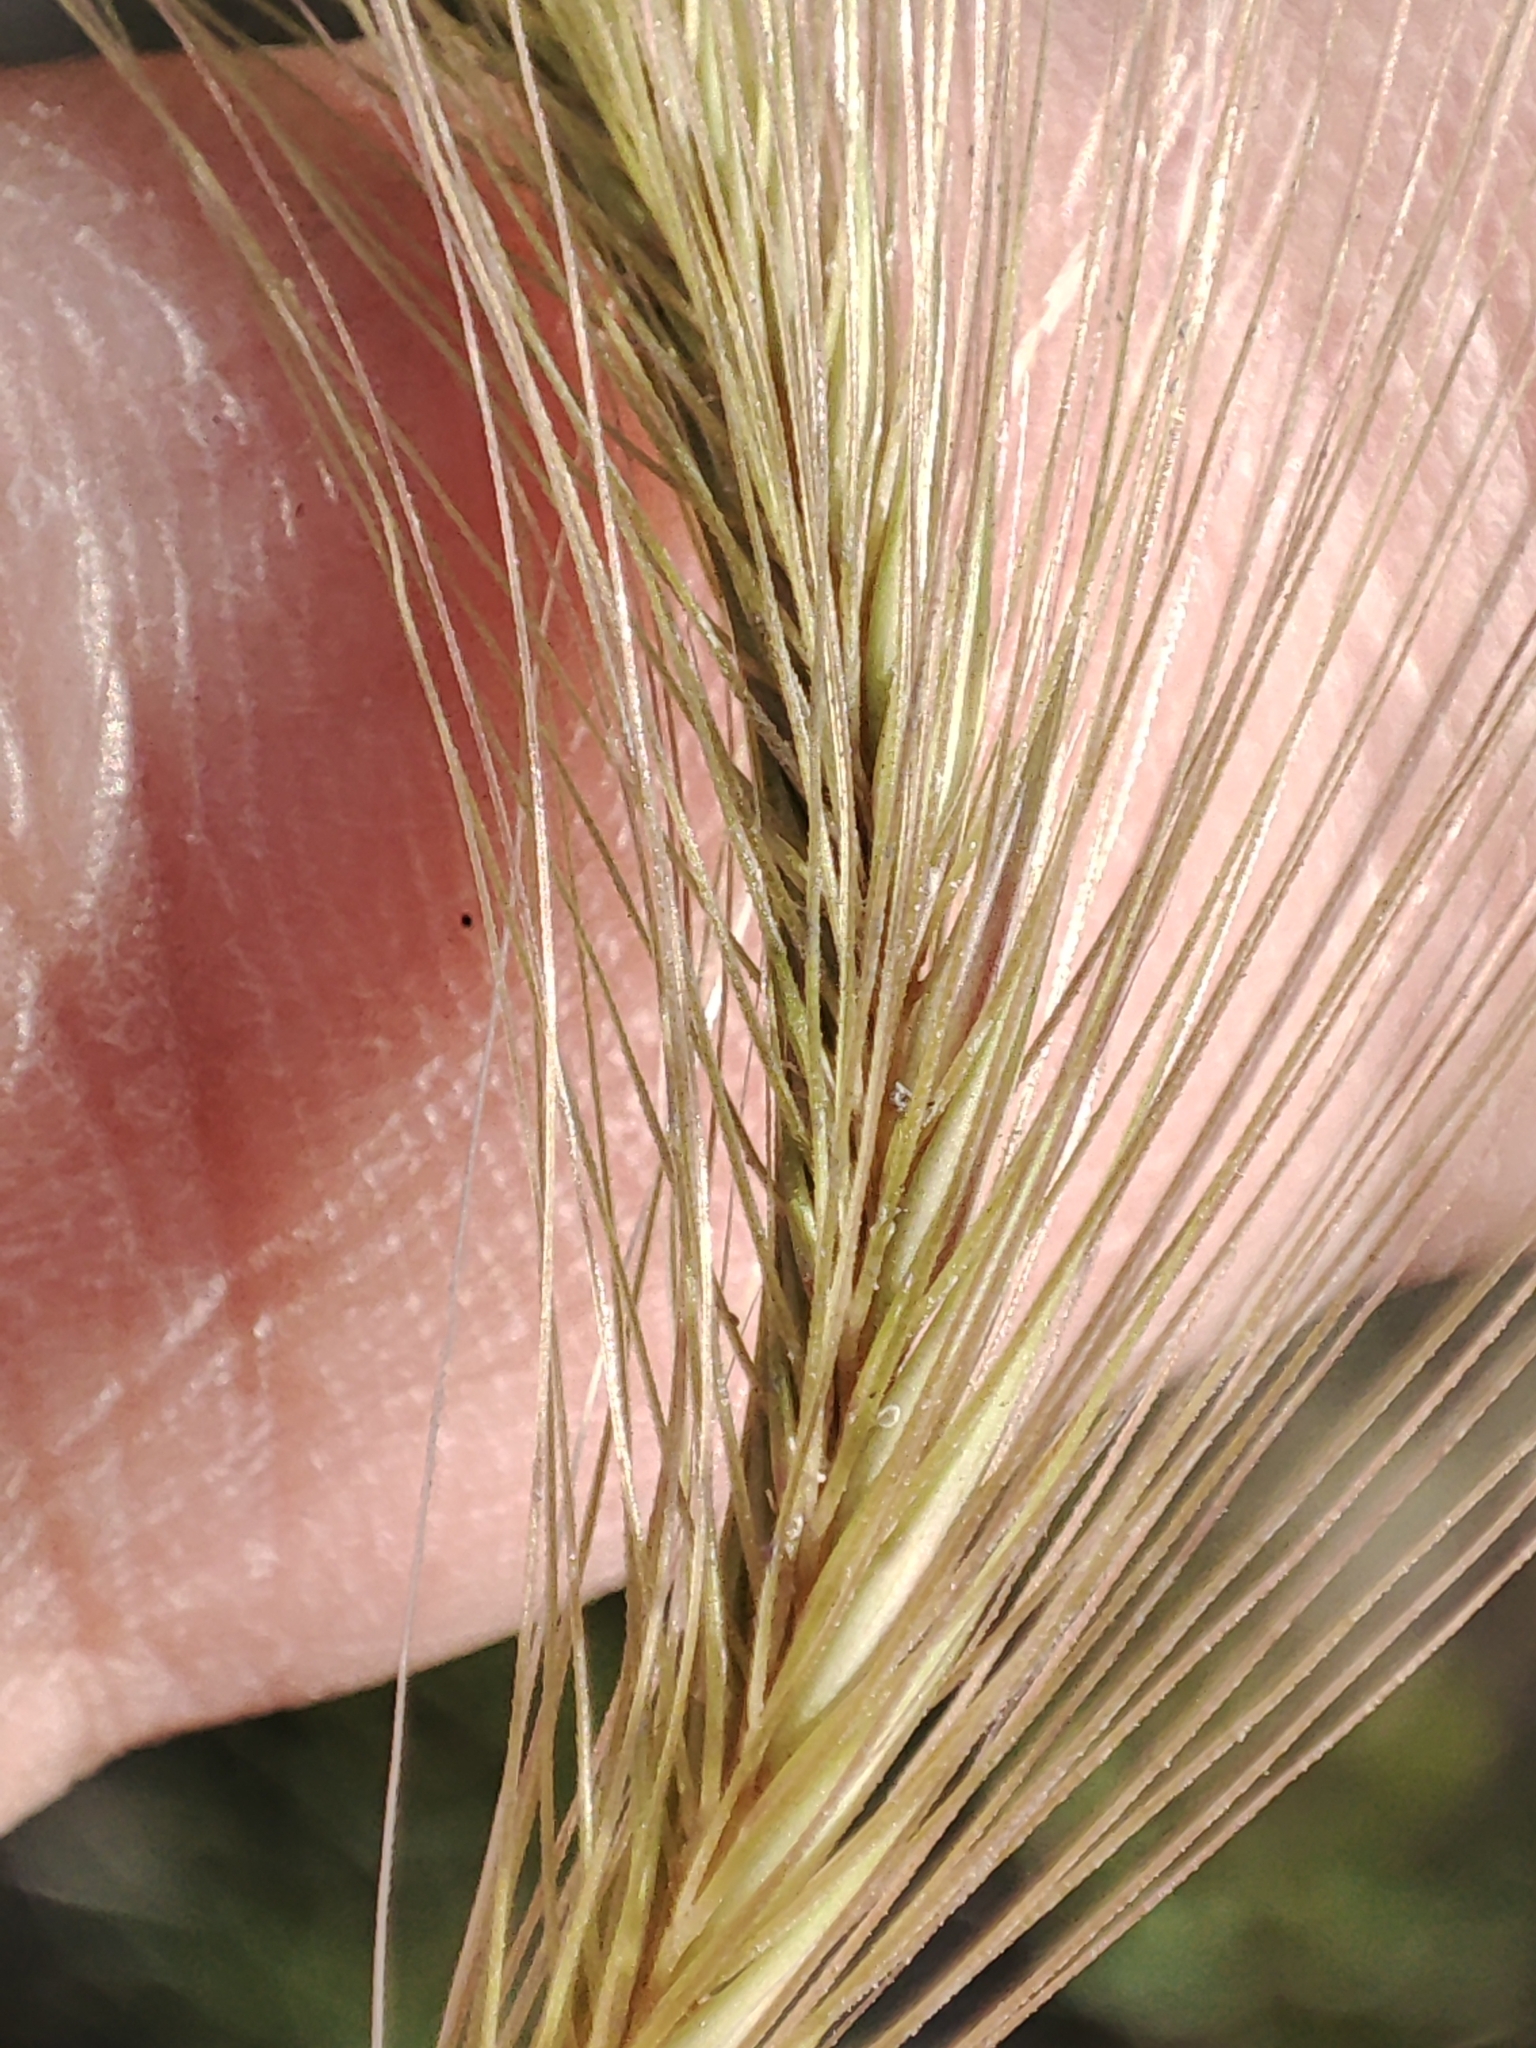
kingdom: Plantae
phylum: Tracheophyta
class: Liliopsida
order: Poales
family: Poaceae
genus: Hordeum
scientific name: Hordeum jubatum
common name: Foxtail barley
